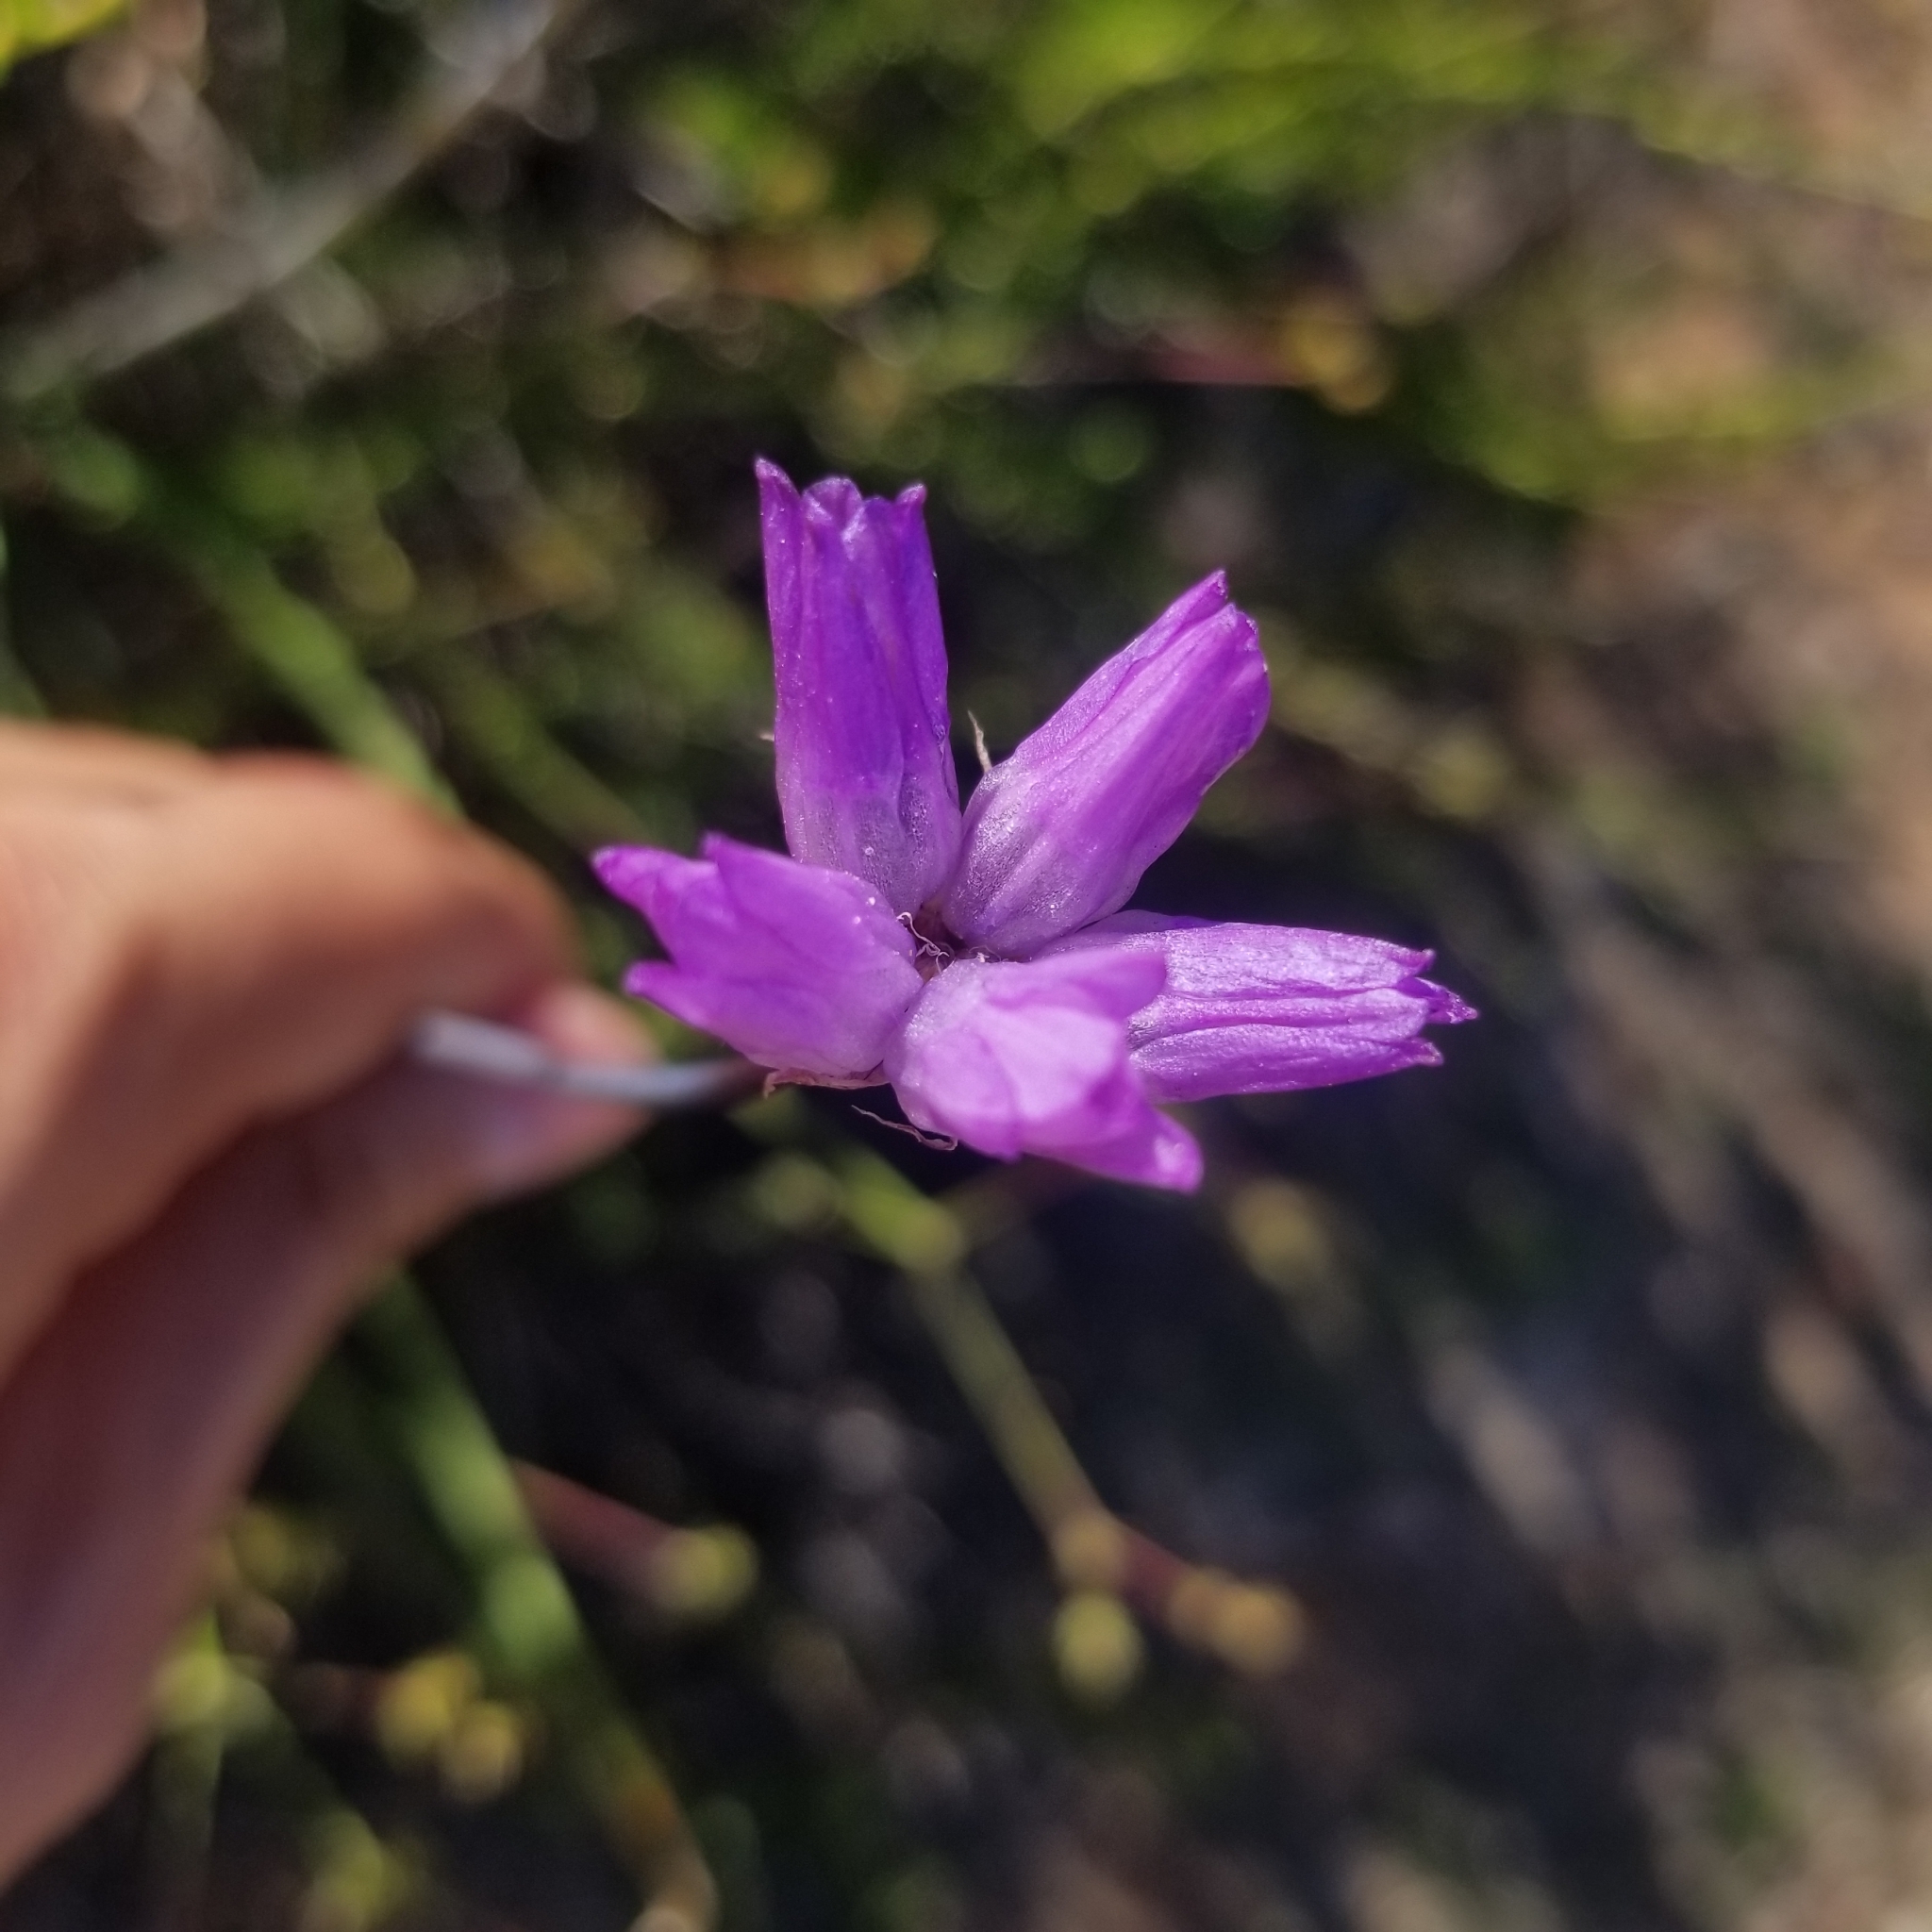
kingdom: Plantae
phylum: Tracheophyta
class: Liliopsida
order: Asparagales
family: Asparagaceae
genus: Dipterostemon
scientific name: Dipterostemon capitatus
